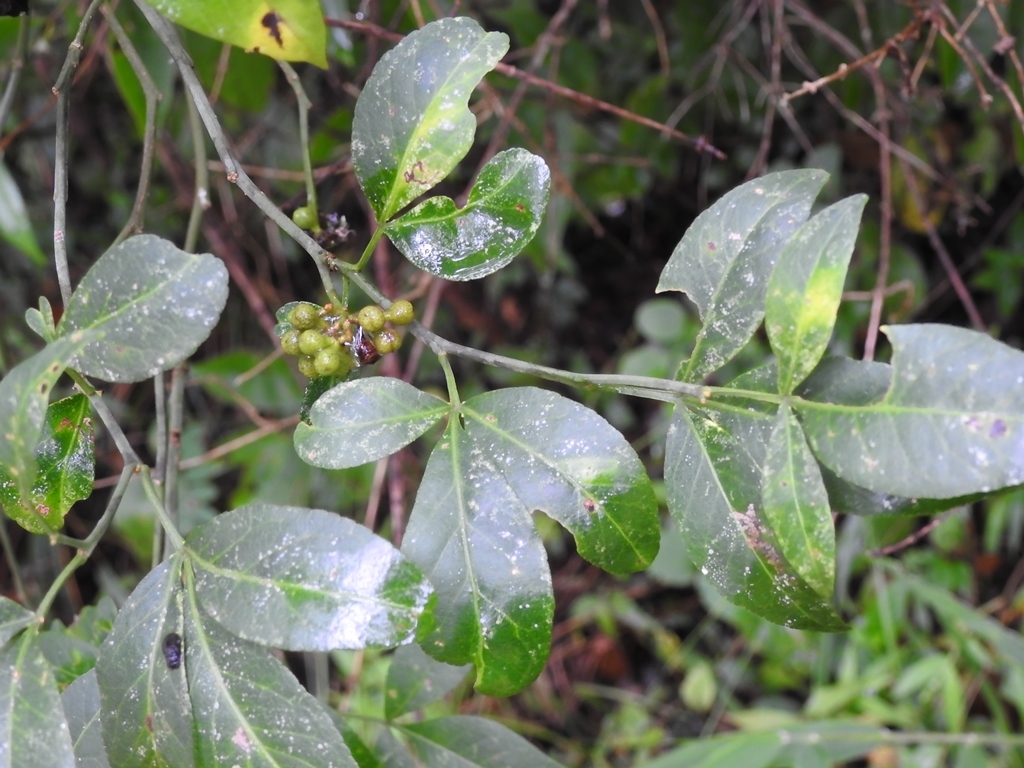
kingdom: Plantae
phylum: Tracheophyta
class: Magnoliopsida
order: Sapindales
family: Rutaceae
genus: Zanthoxylum
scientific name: Zanthoxylum limoncello
